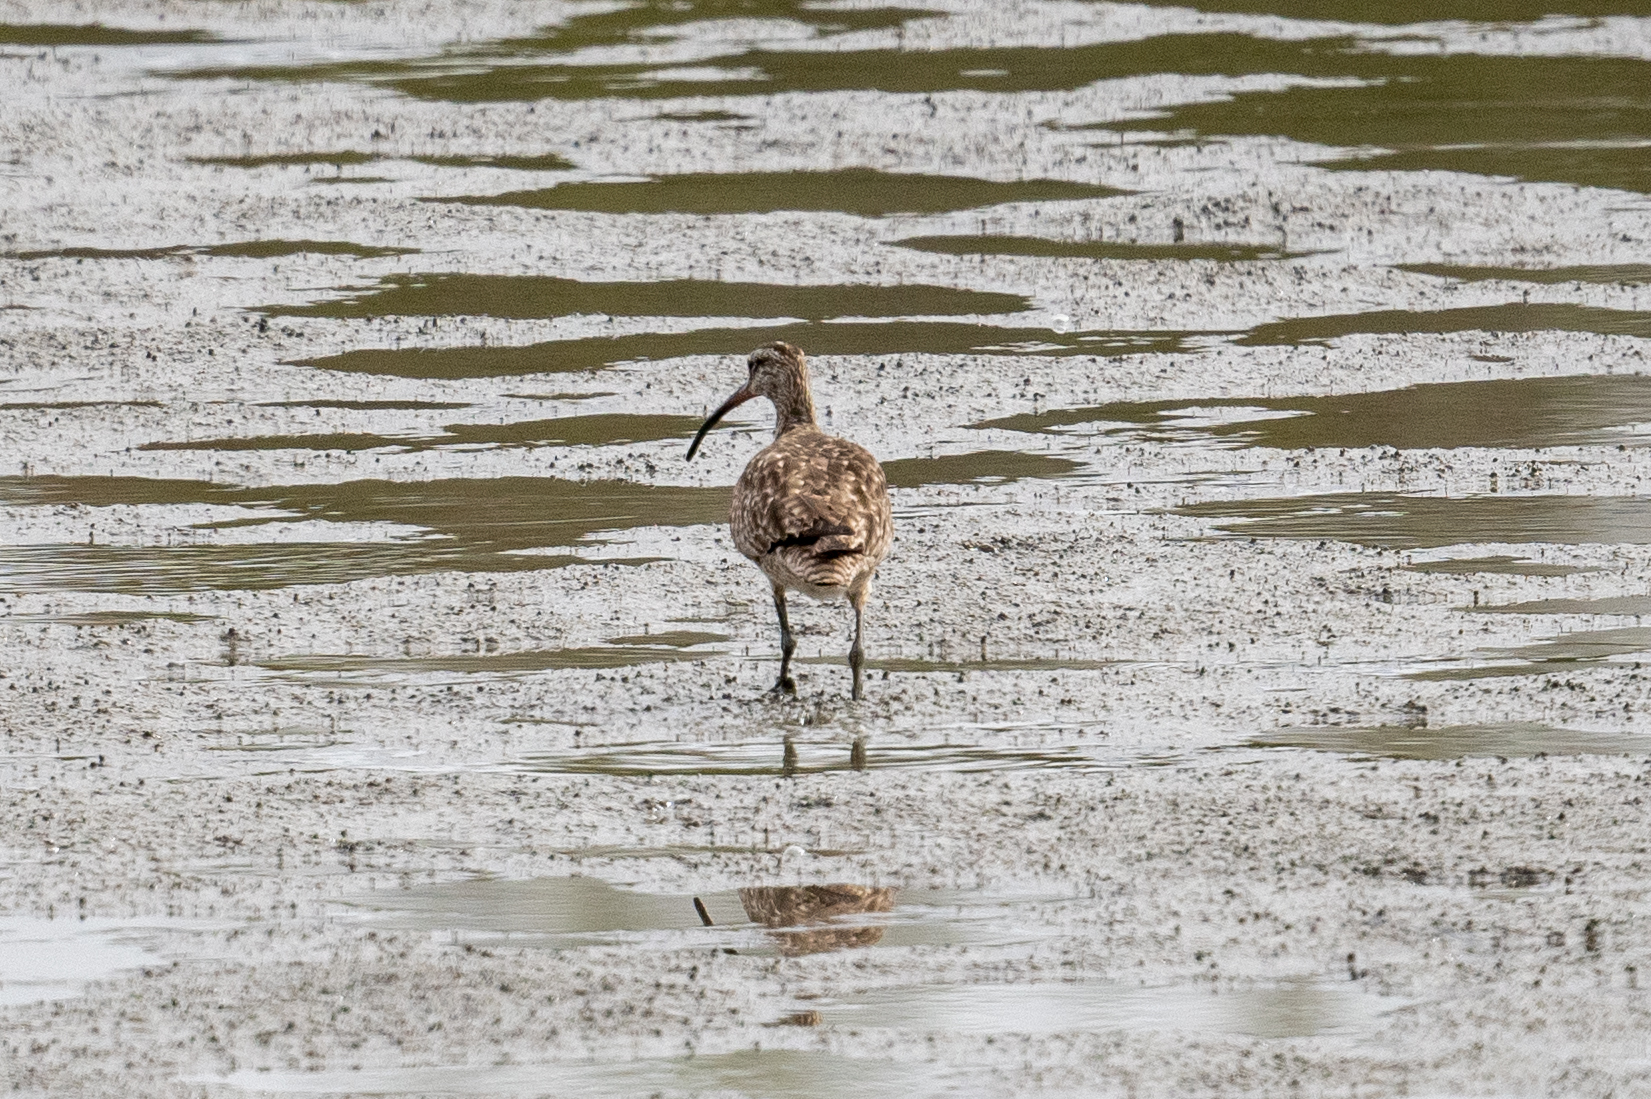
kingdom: Animalia
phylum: Chordata
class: Aves
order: Charadriiformes
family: Scolopacidae
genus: Numenius
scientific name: Numenius phaeopus
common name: Whimbrel
